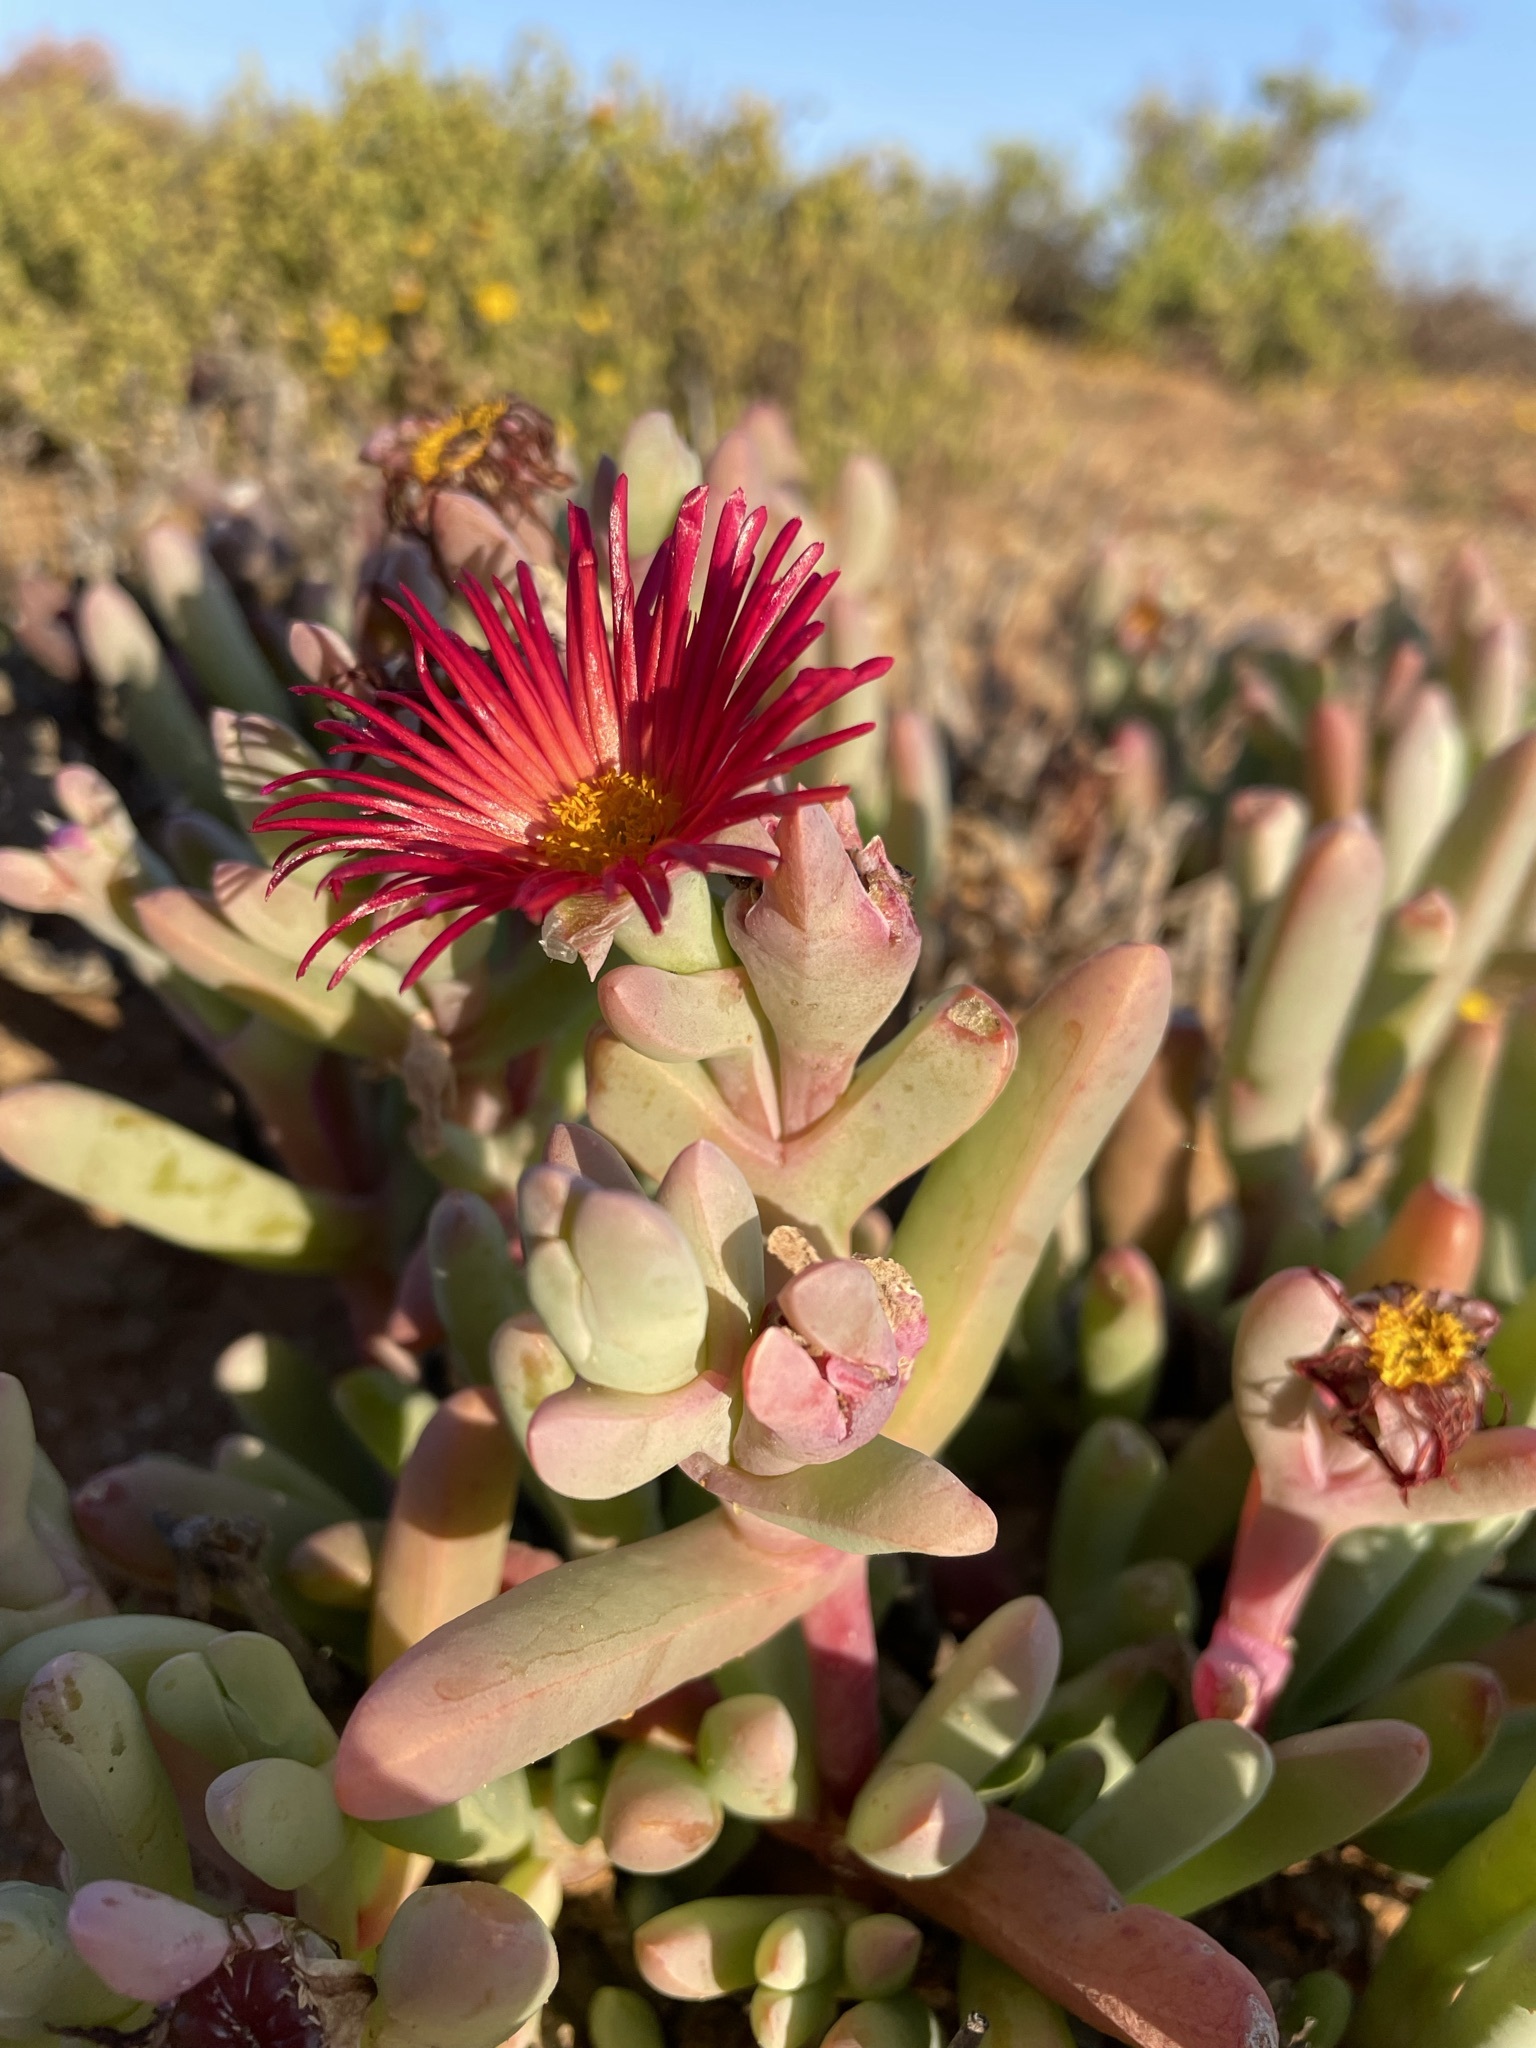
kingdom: Plantae
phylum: Tracheophyta
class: Magnoliopsida
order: Caryophyllales
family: Aizoaceae
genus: Malephora
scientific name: Malephora purpureocrocea
